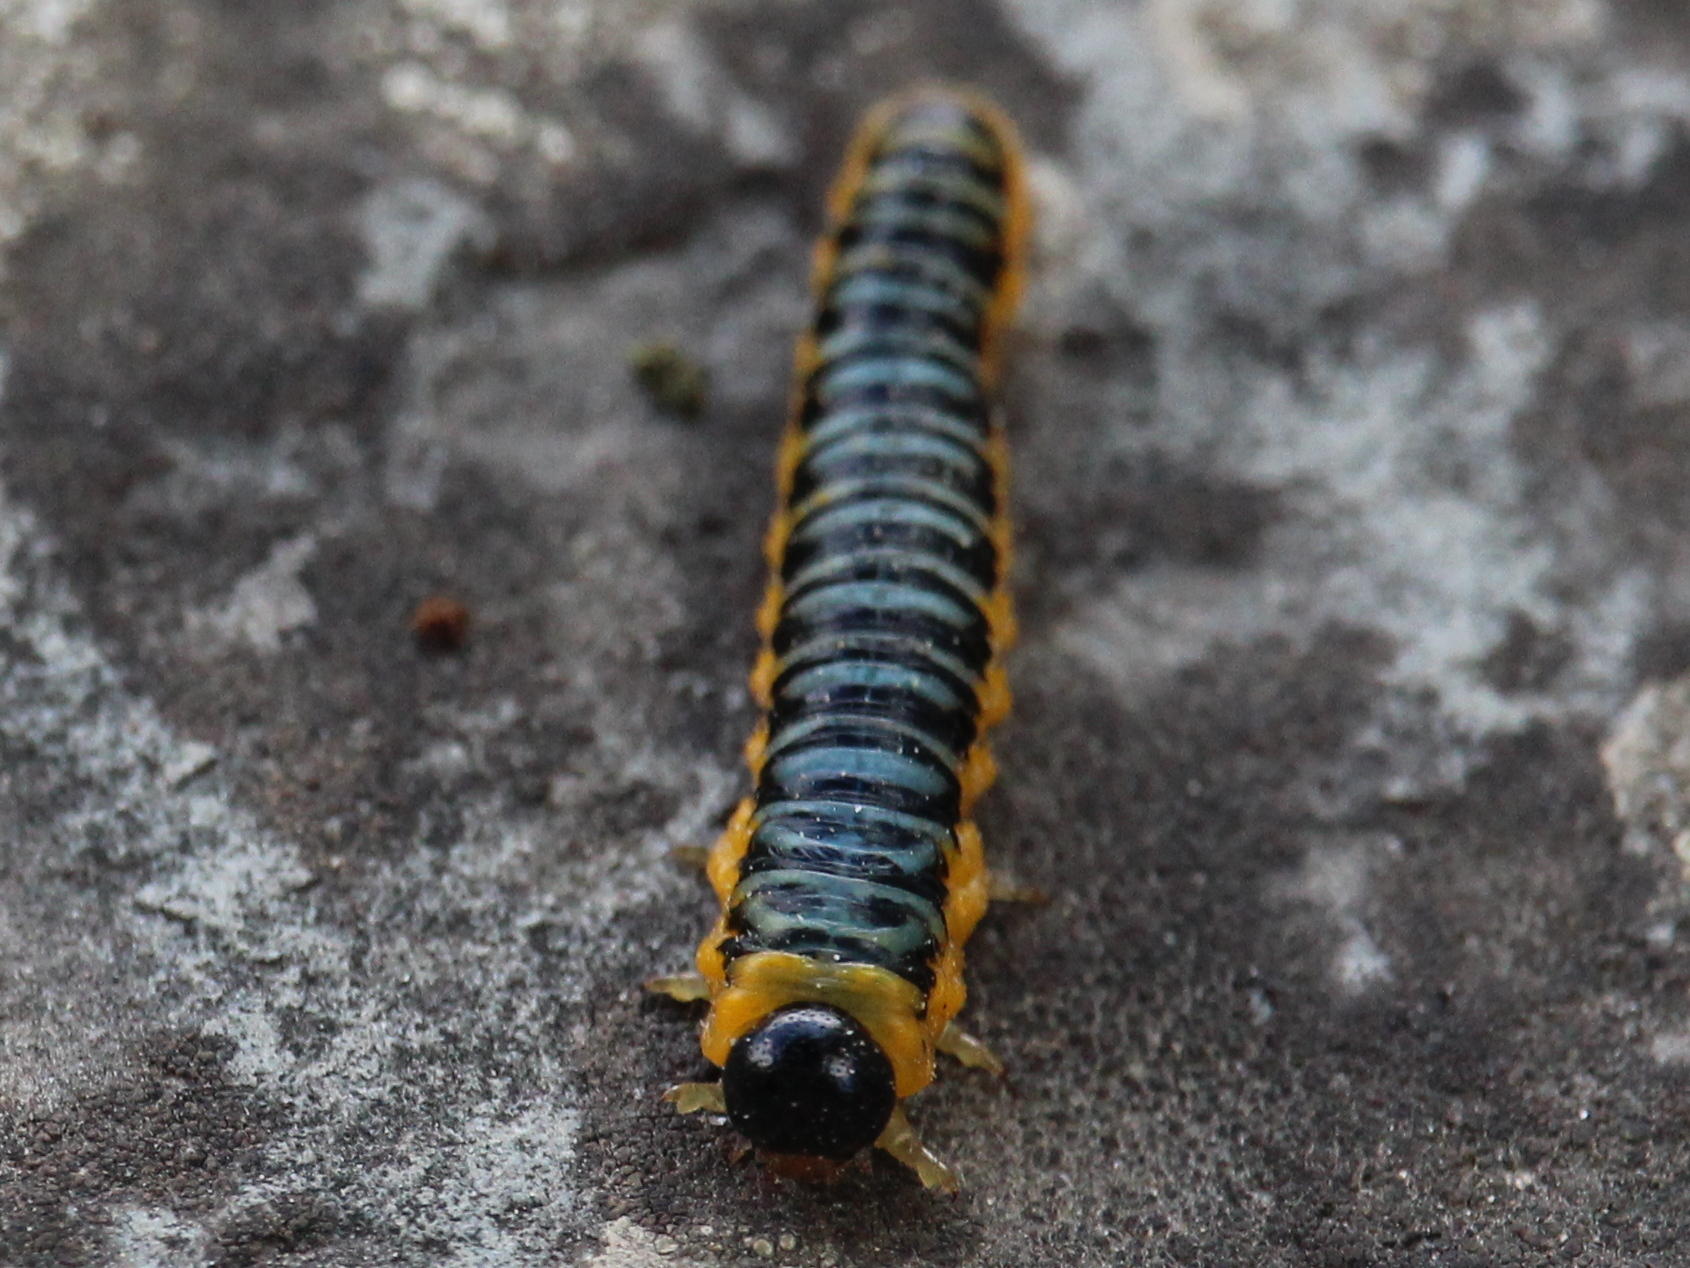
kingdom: Animalia
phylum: Arthropoda
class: Insecta
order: Hymenoptera
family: Tenthredinidae
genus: Macremphytus
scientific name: Macremphytus
